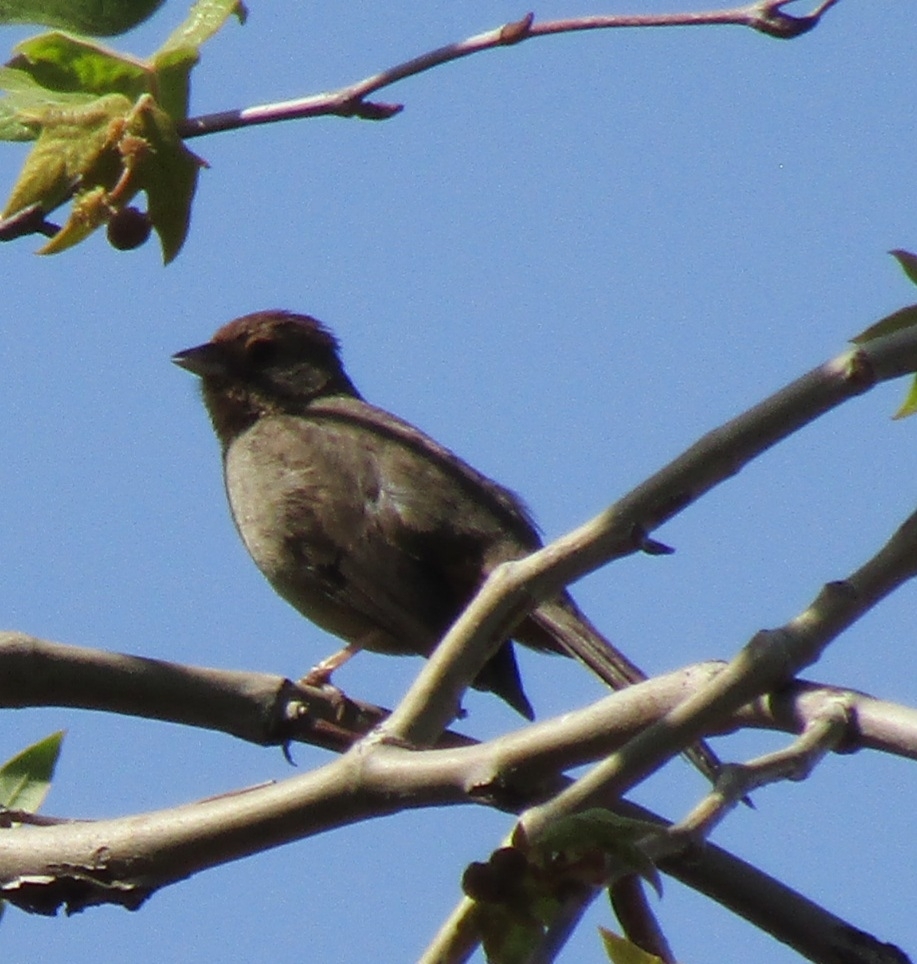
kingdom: Animalia
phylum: Chordata
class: Aves
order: Passeriformes
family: Passerellidae
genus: Melozone
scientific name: Melozone crissalis
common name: California towhee
